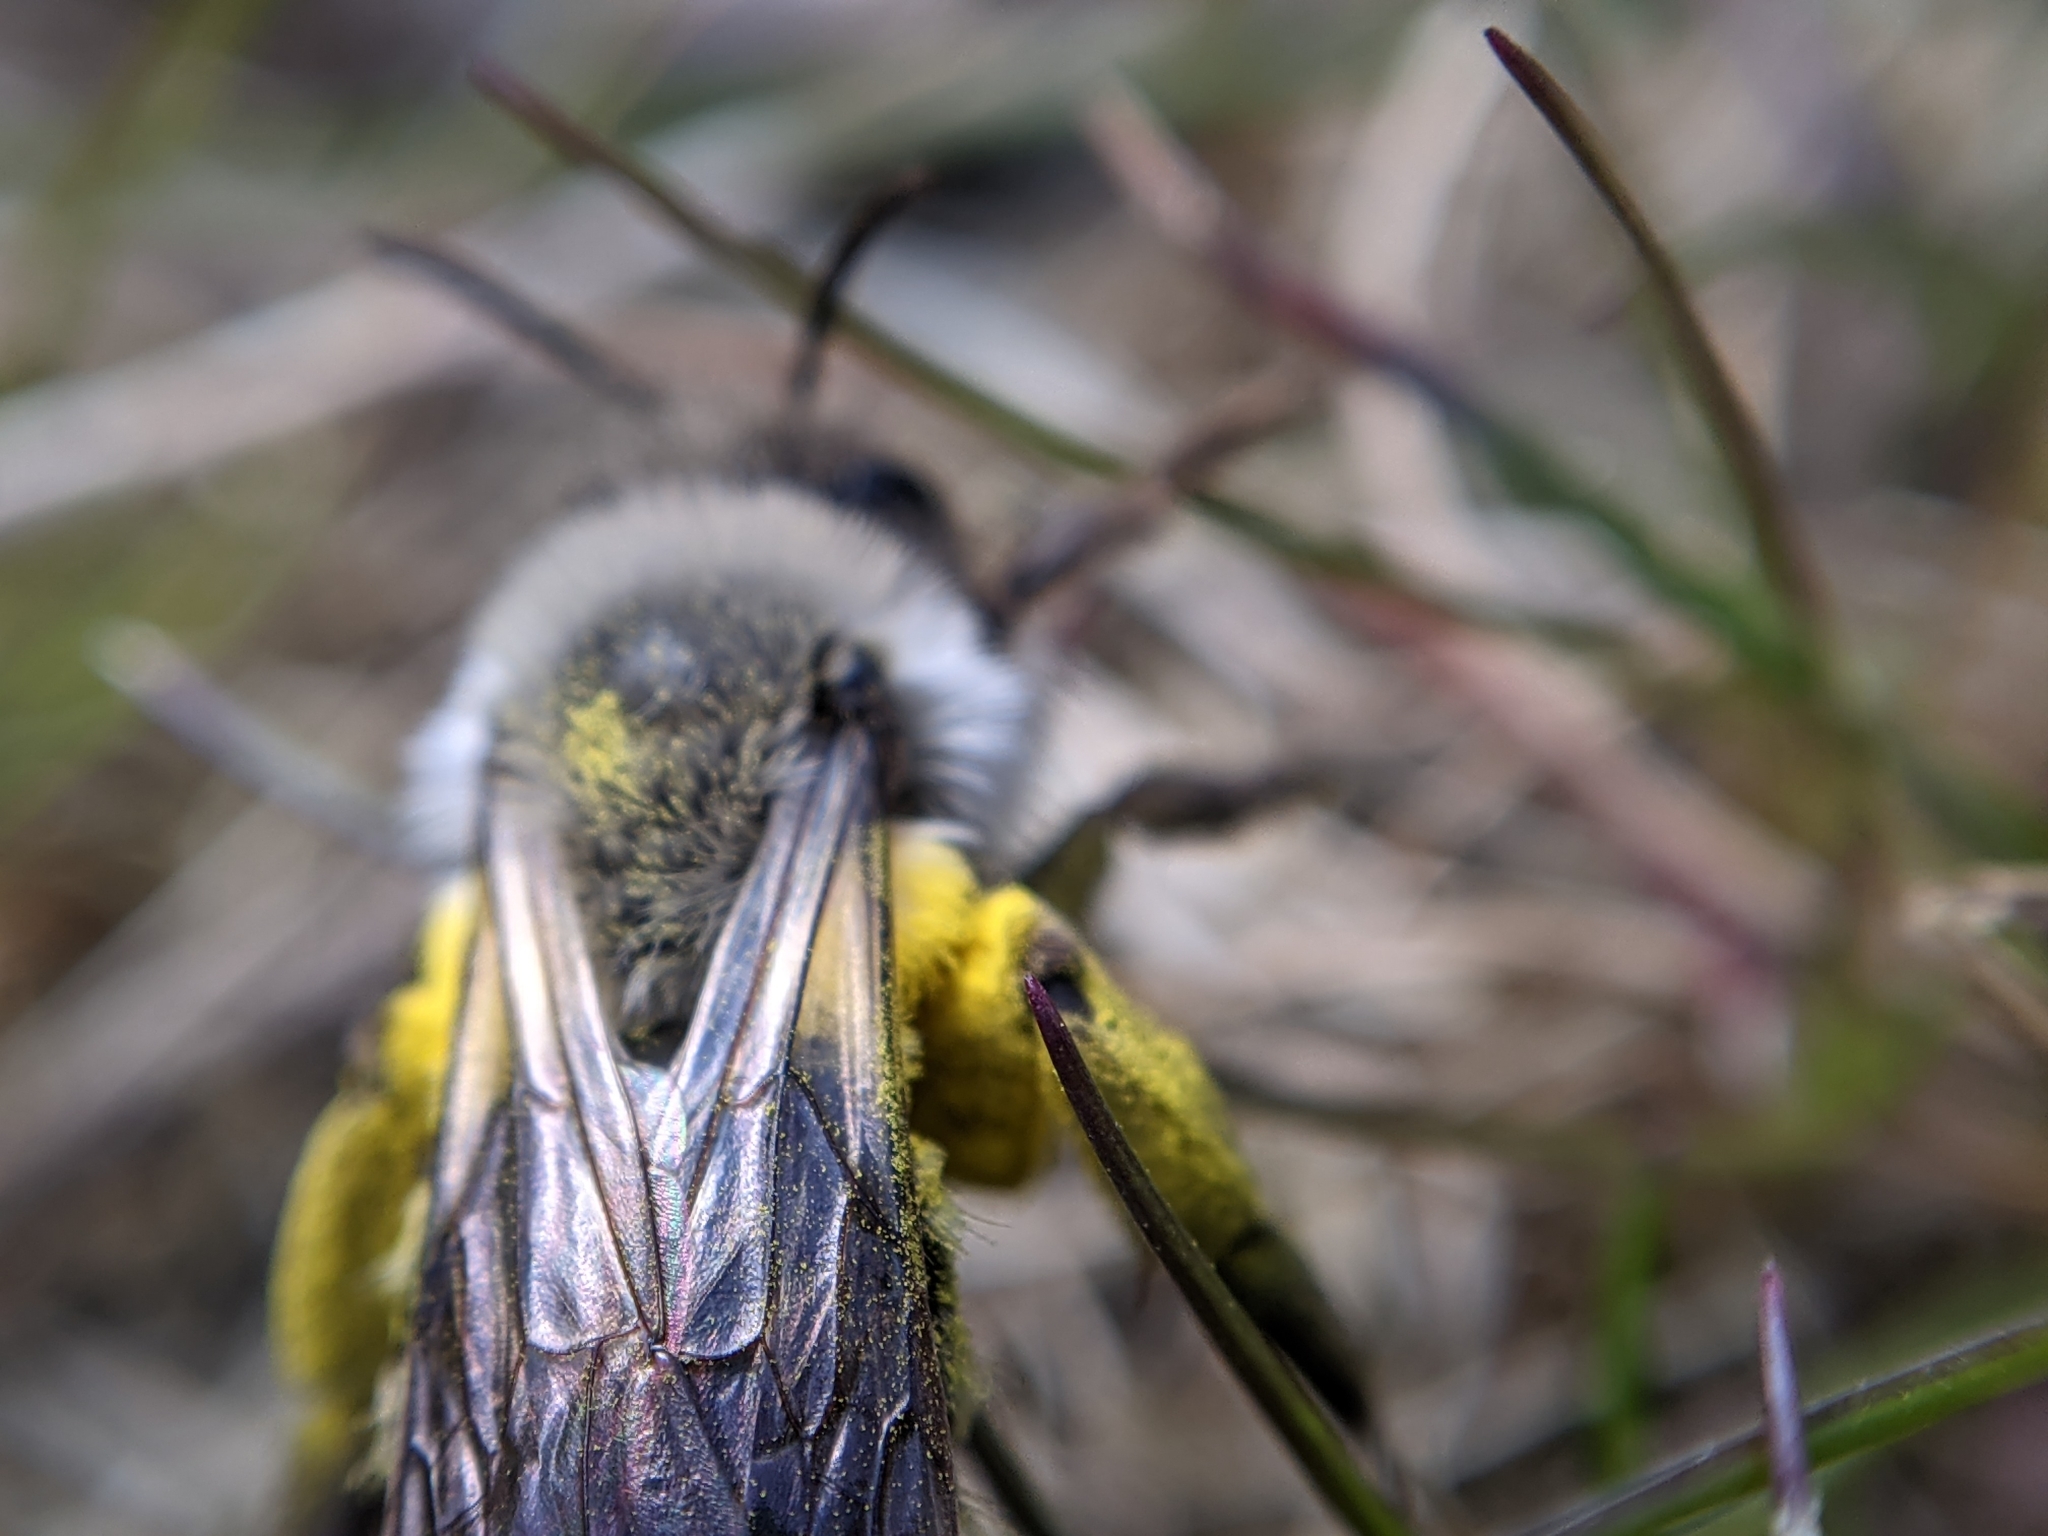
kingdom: Animalia
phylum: Arthropoda
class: Insecta
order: Hymenoptera
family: Andrenidae
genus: Andrena
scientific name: Andrena vaga
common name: Grey-backed mining bee
